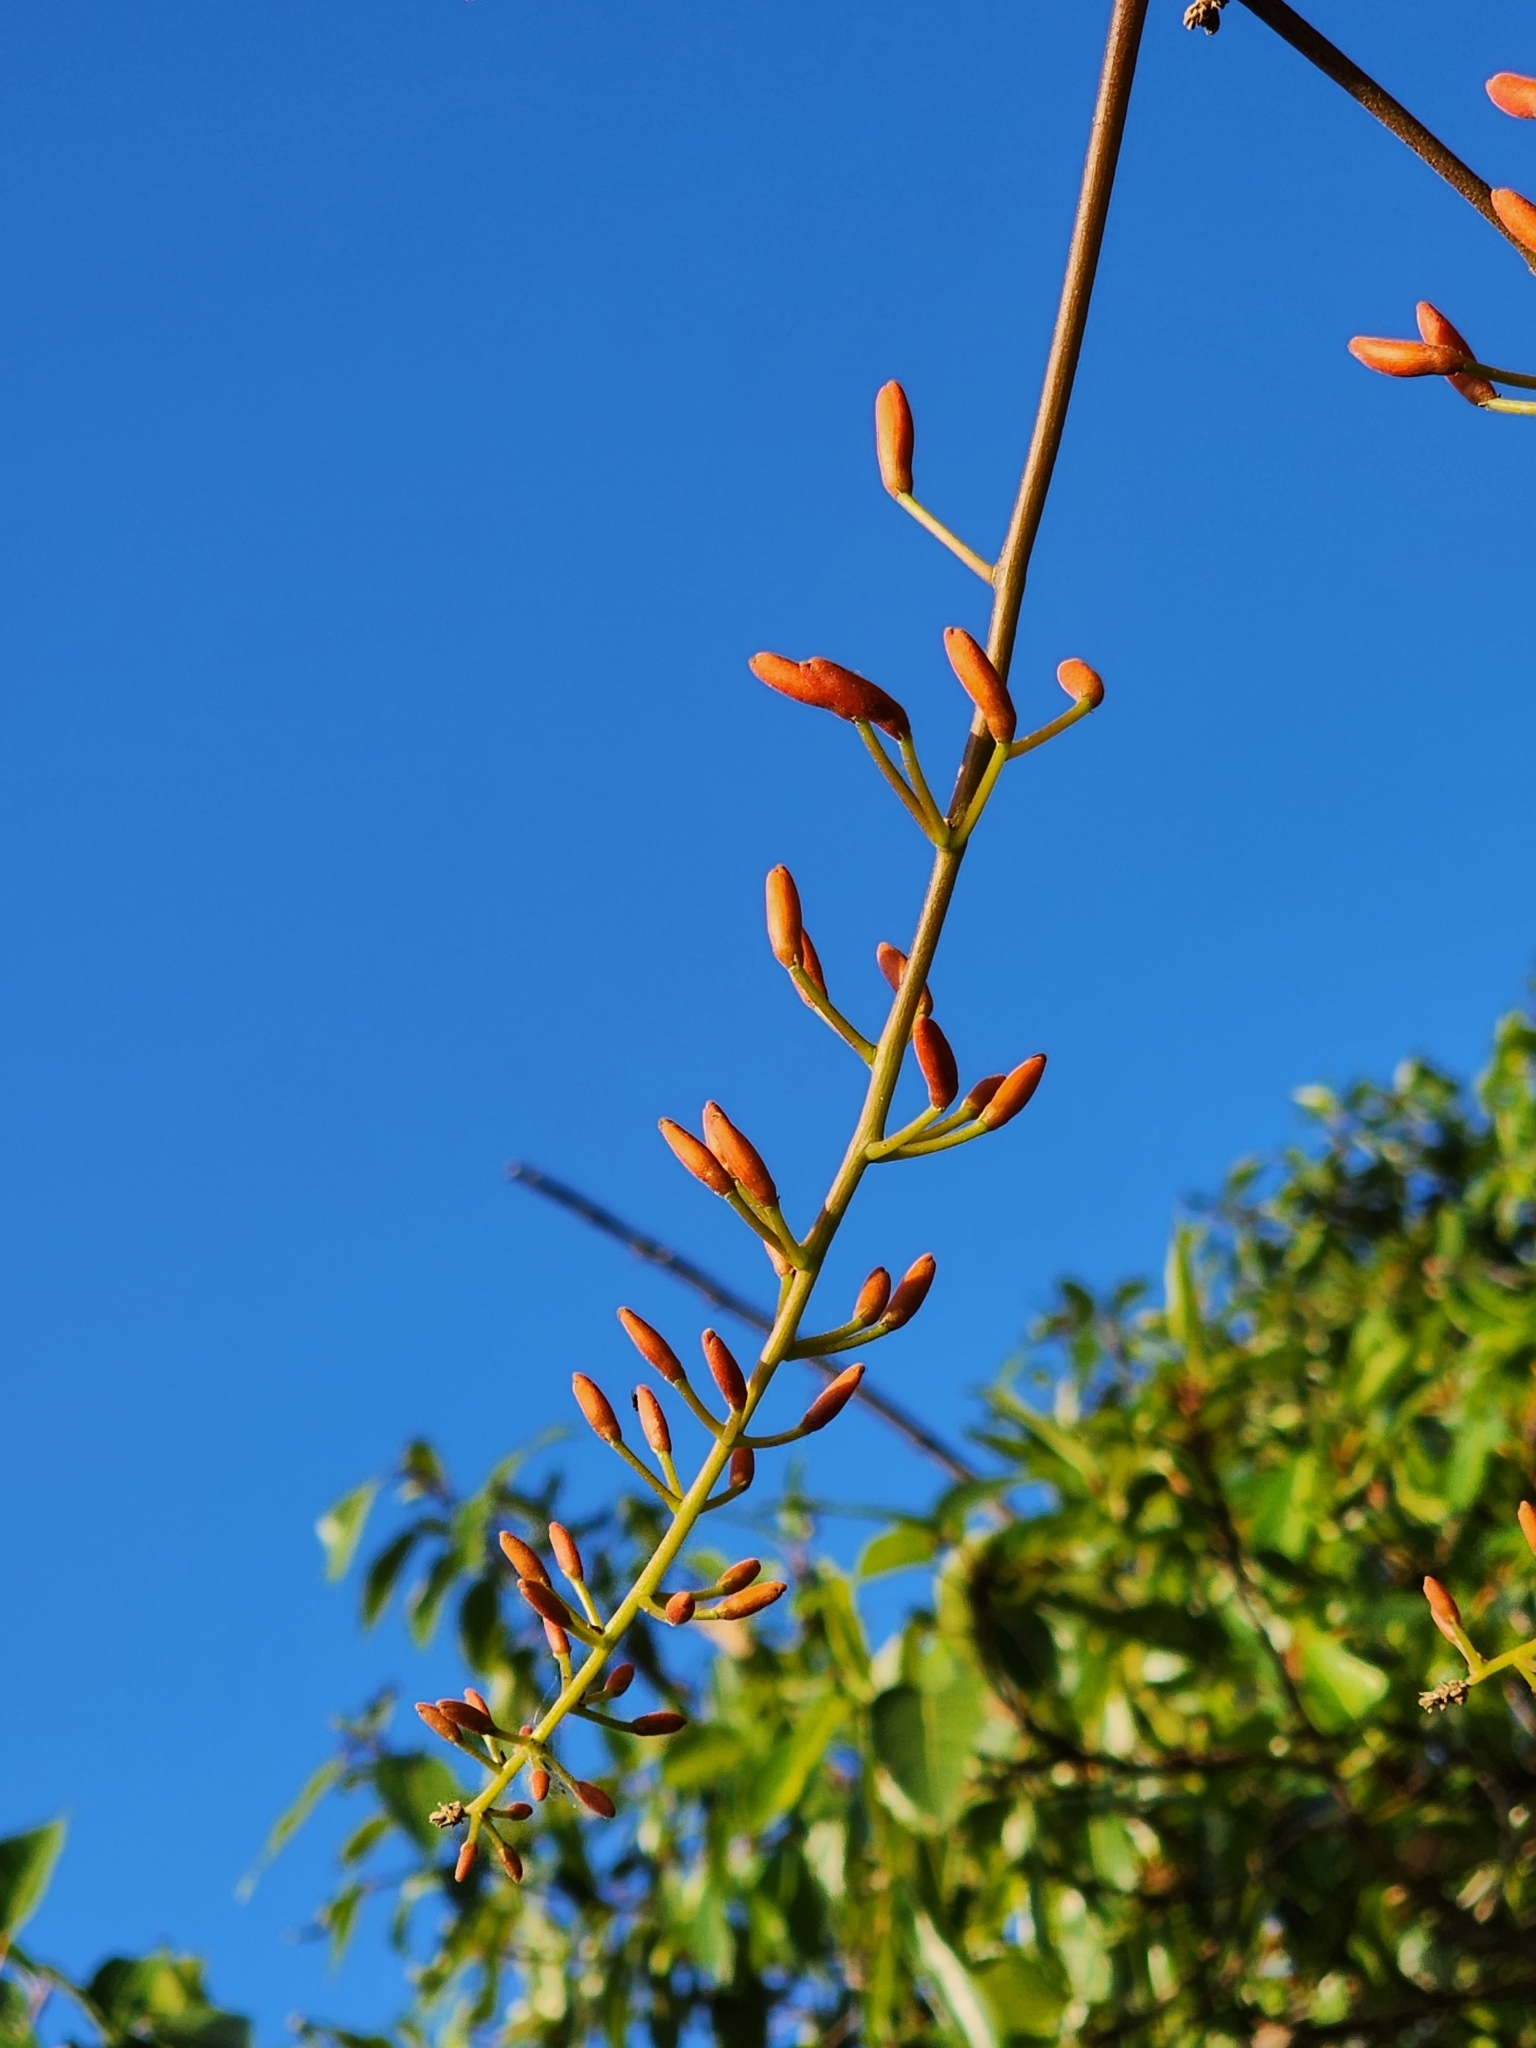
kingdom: Plantae
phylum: Tracheophyta
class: Magnoliopsida
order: Fabales
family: Fabaceae
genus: Erythrina
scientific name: Erythrina vespertilio
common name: Bat-wing coral tree
